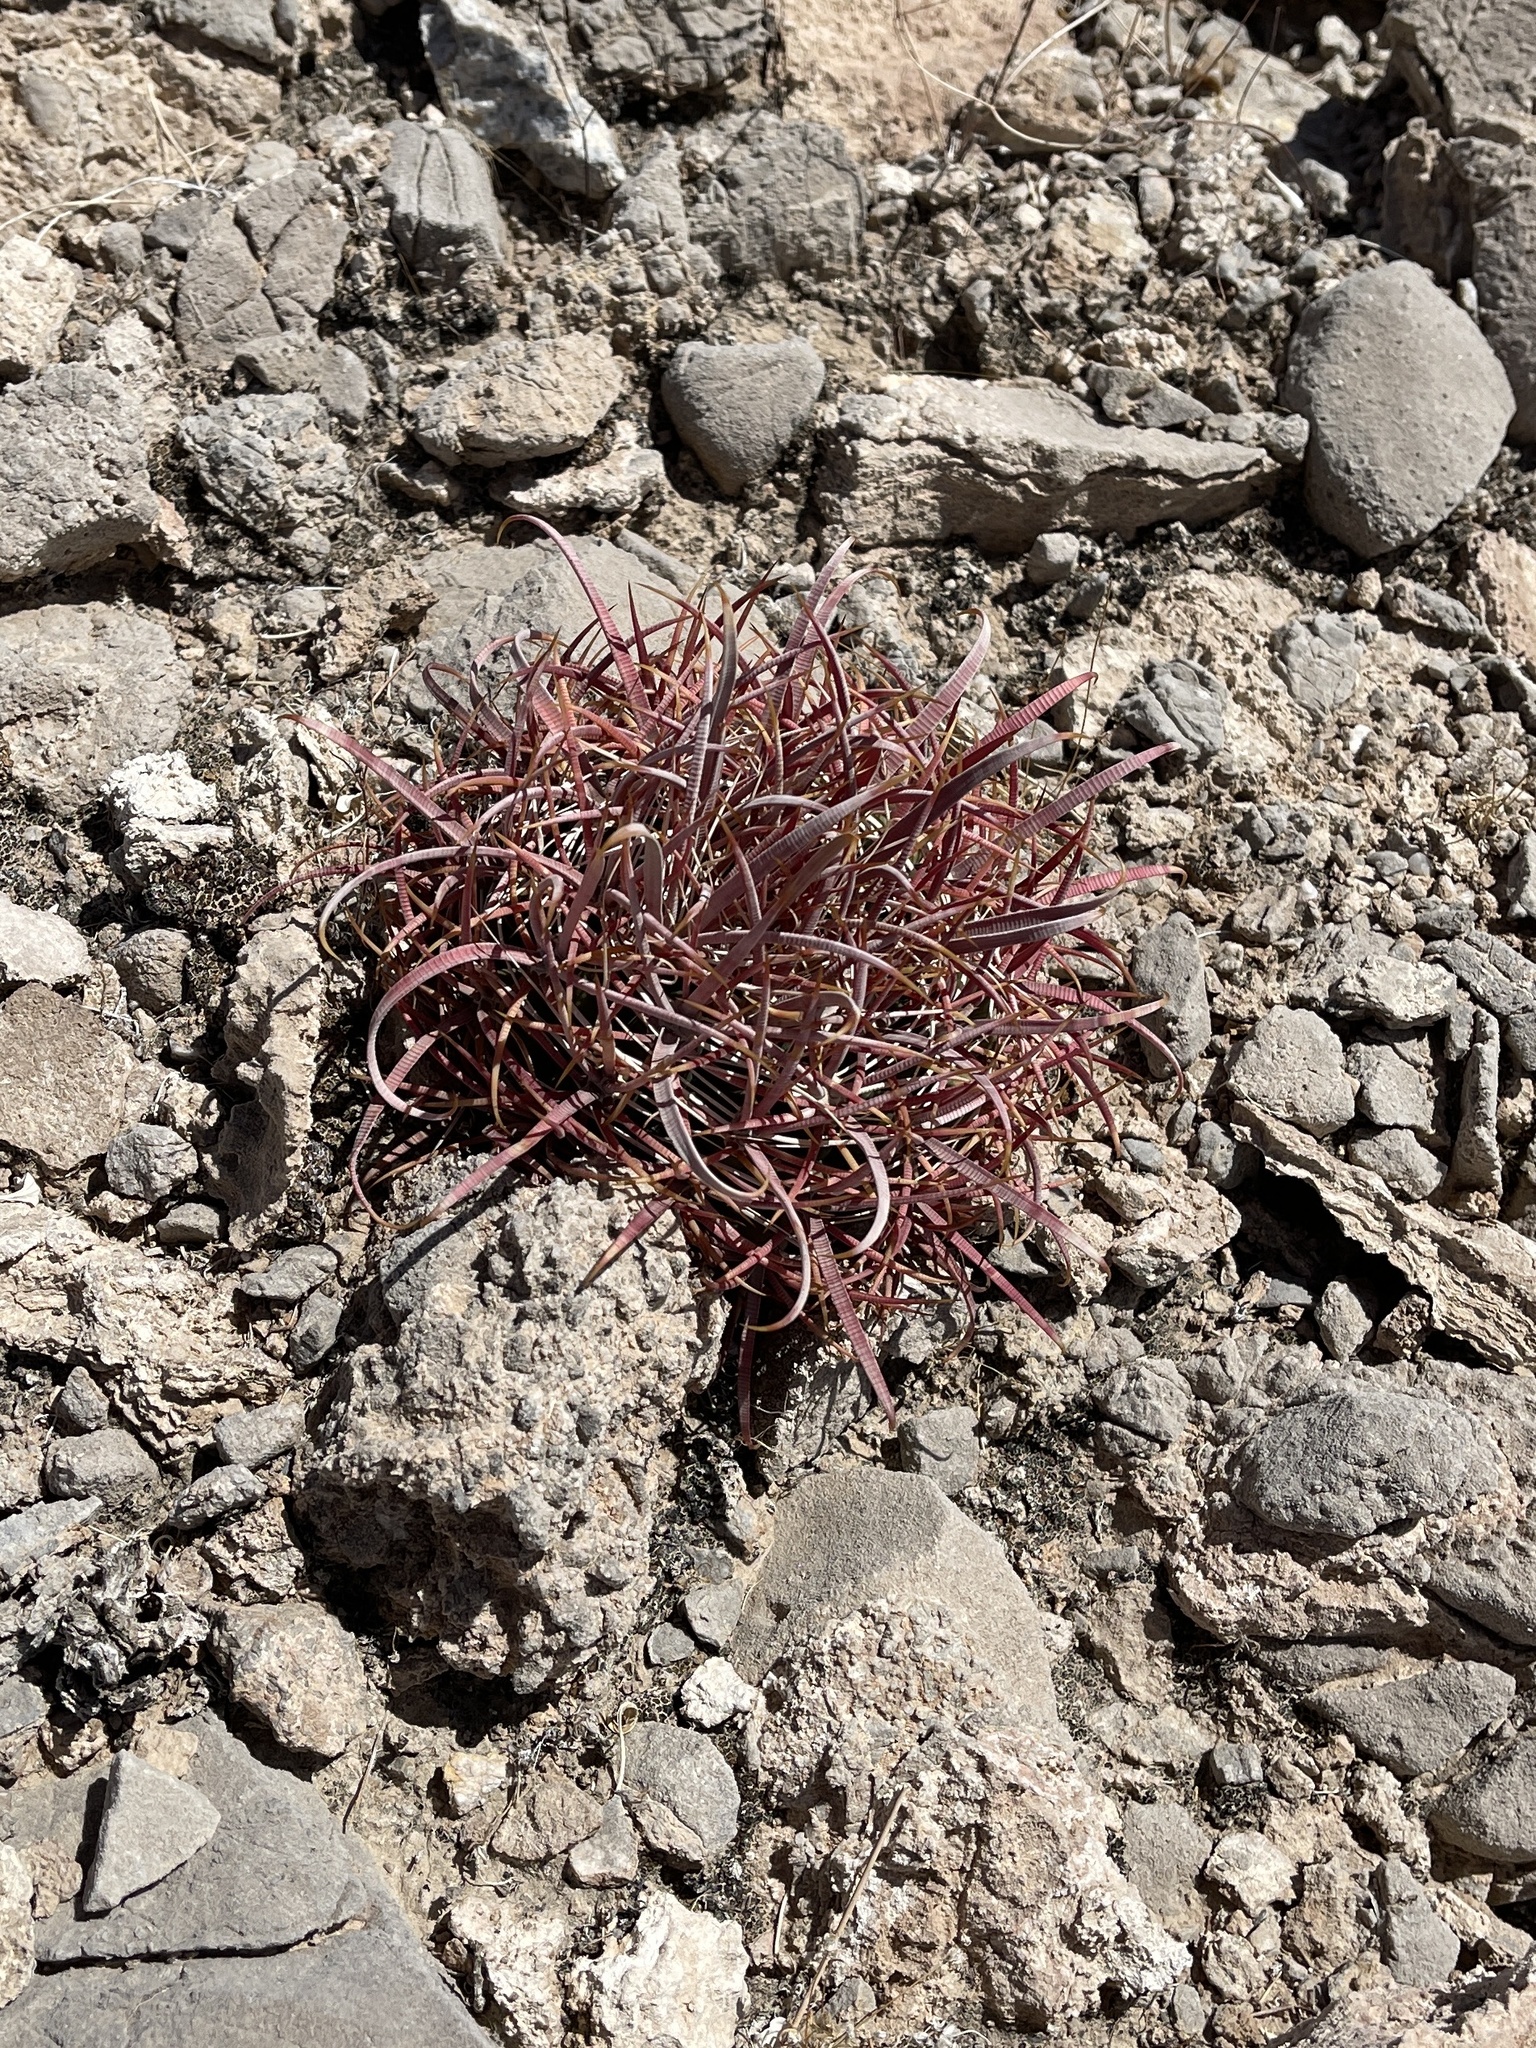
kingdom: Plantae
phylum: Tracheophyta
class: Magnoliopsida
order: Caryophyllales
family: Cactaceae
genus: Ferocactus
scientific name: Ferocactus cylindraceus
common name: California barrel cactus
